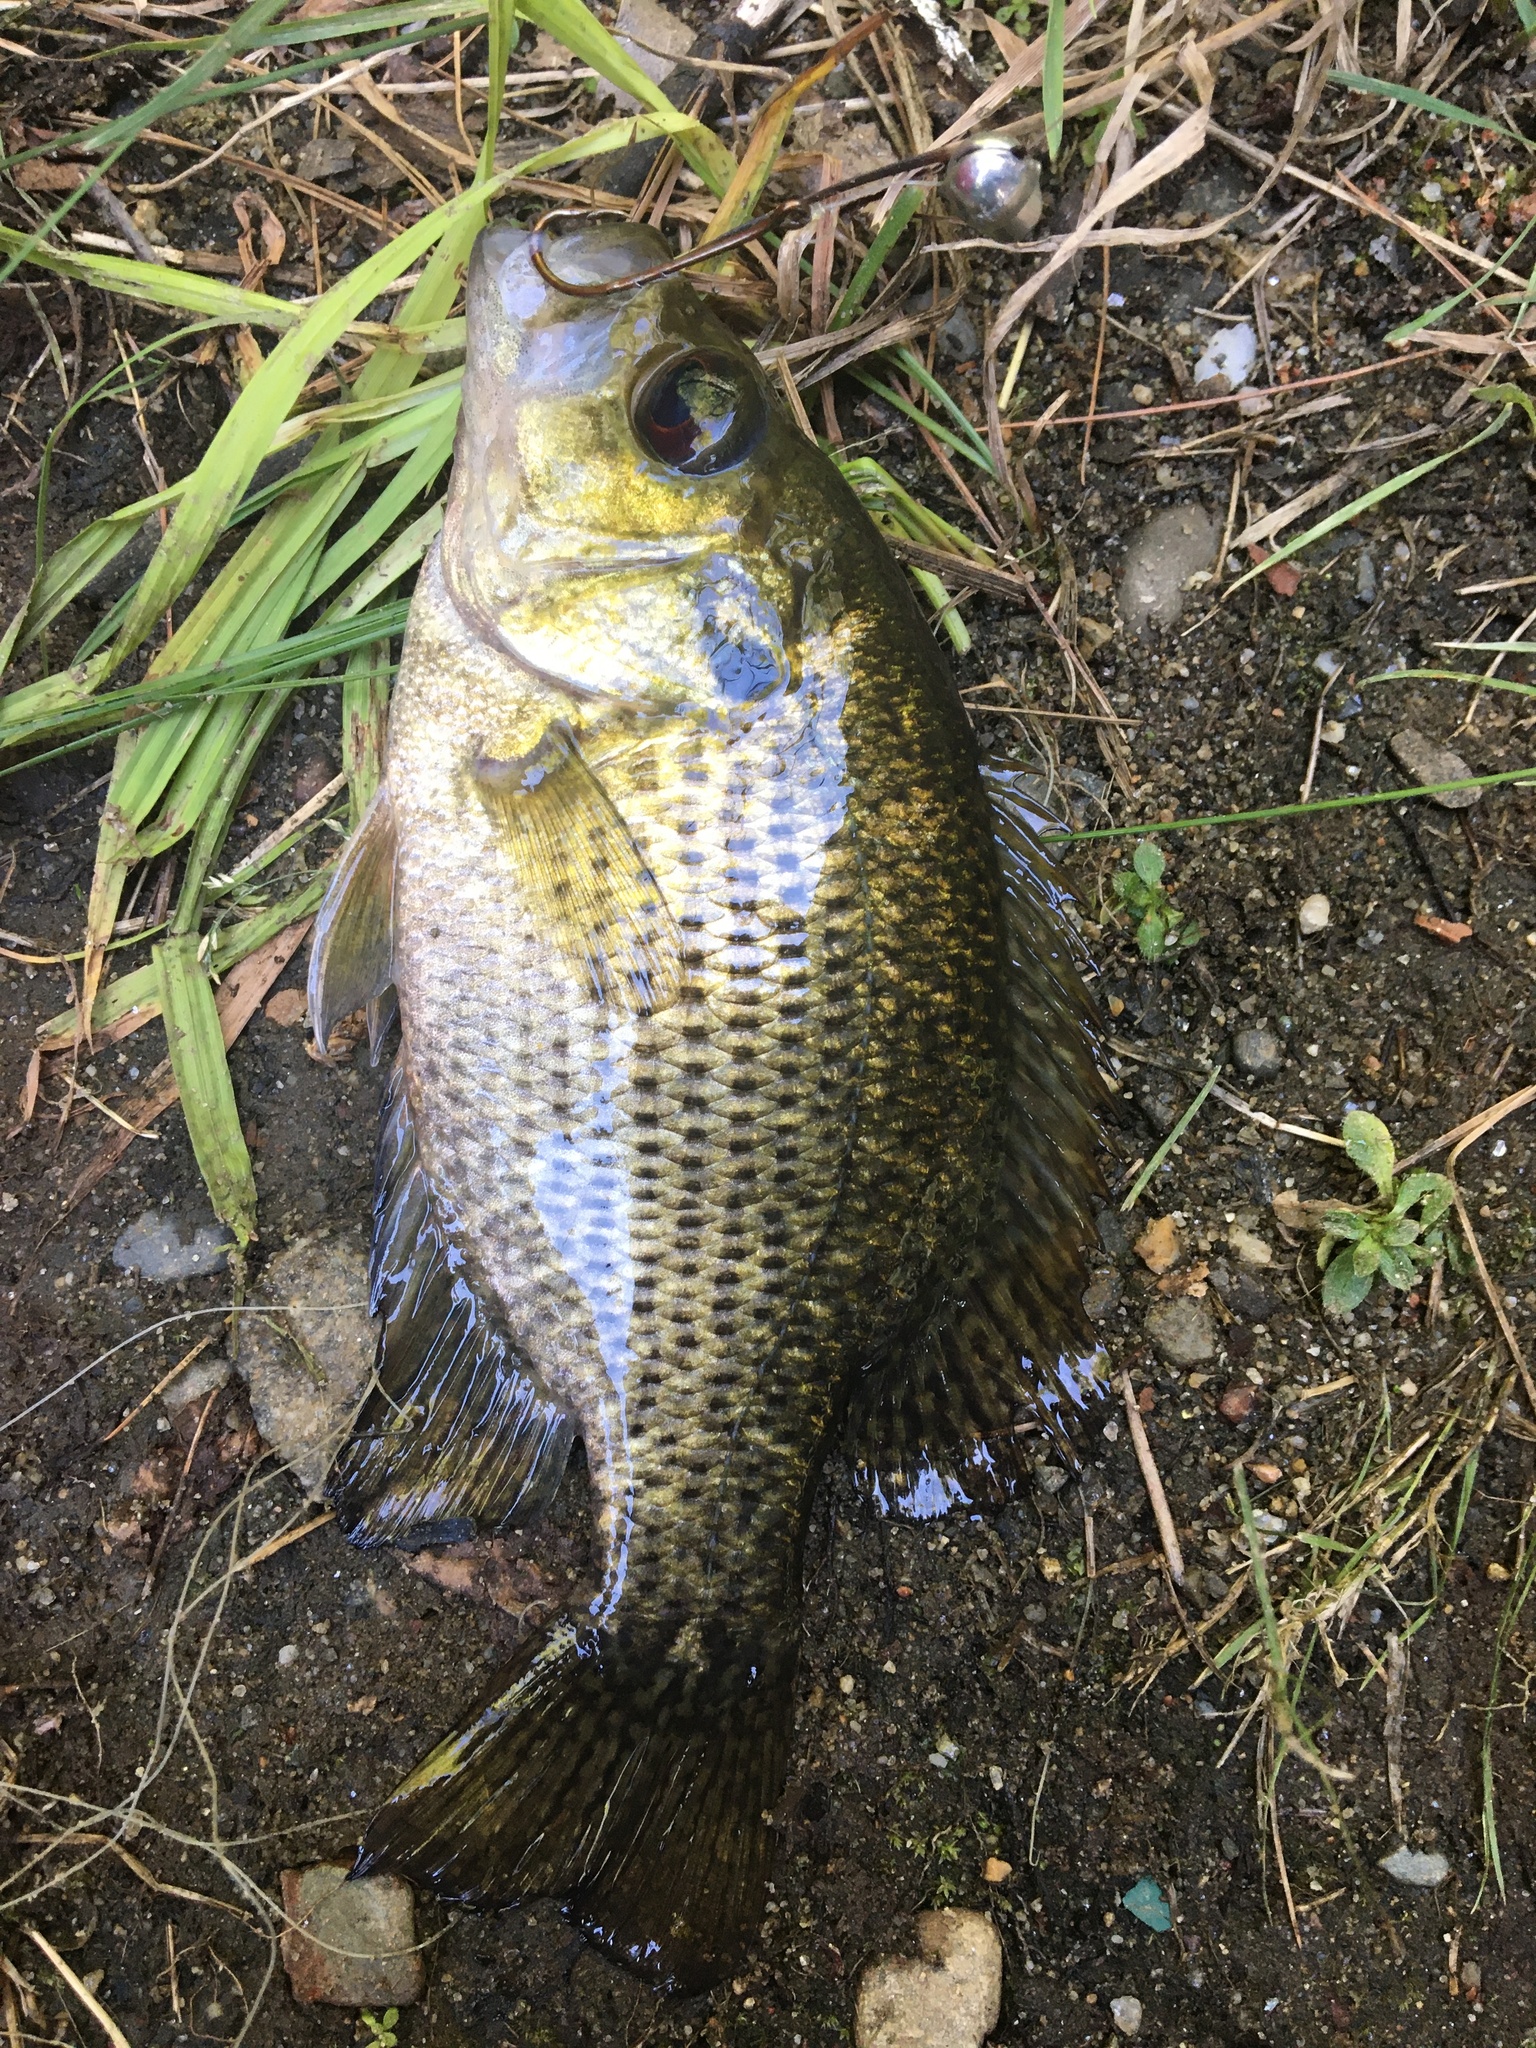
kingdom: Animalia
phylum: Chordata
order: Perciformes
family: Centrarchidae
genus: Ambloplites
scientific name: Ambloplites rupestris
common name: Rock bass
